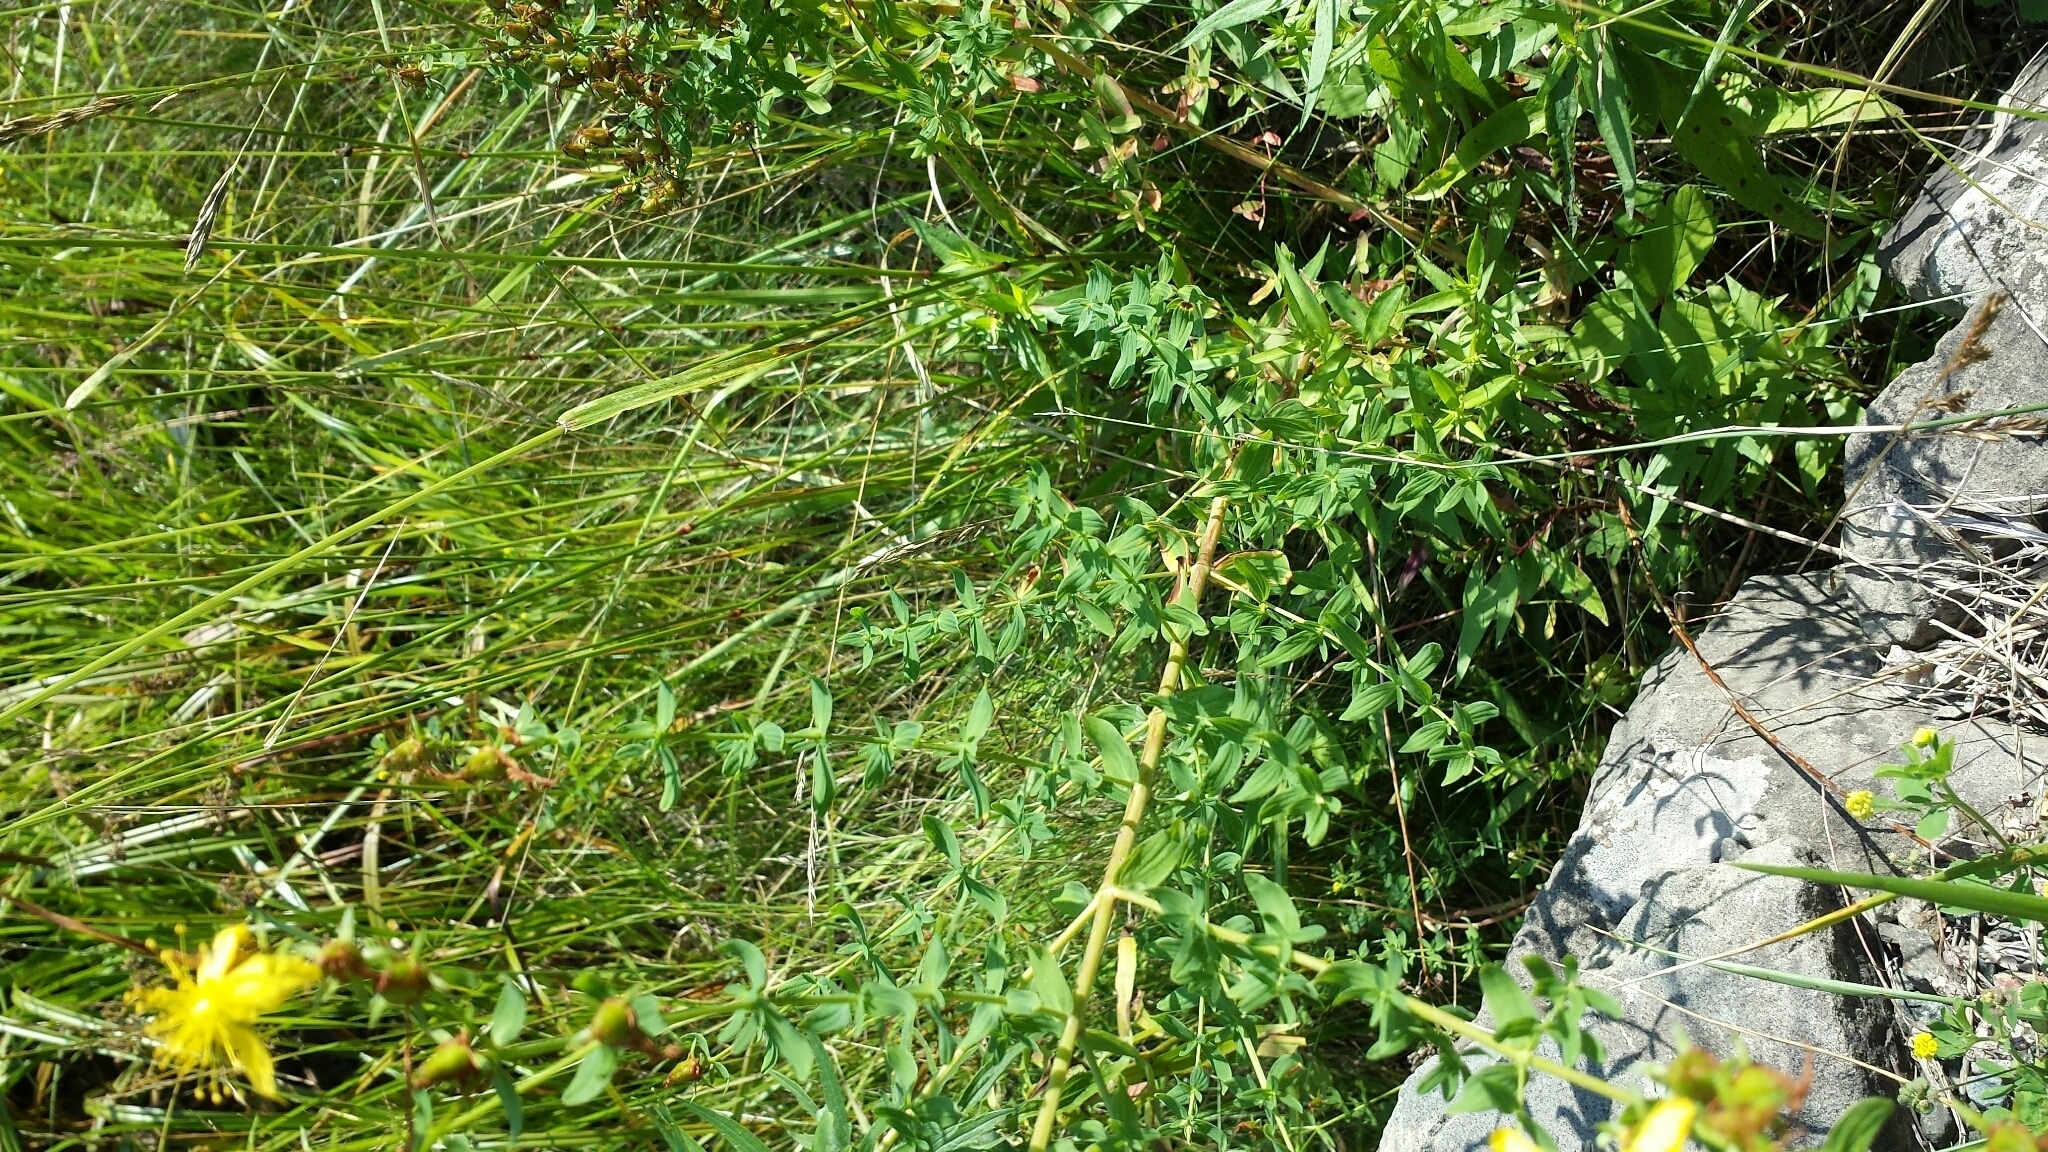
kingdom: Plantae
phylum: Tracheophyta
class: Magnoliopsida
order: Malpighiales
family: Hypericaceae
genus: Hypericum
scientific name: Hypericum perforatum
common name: Common st. johnswort
